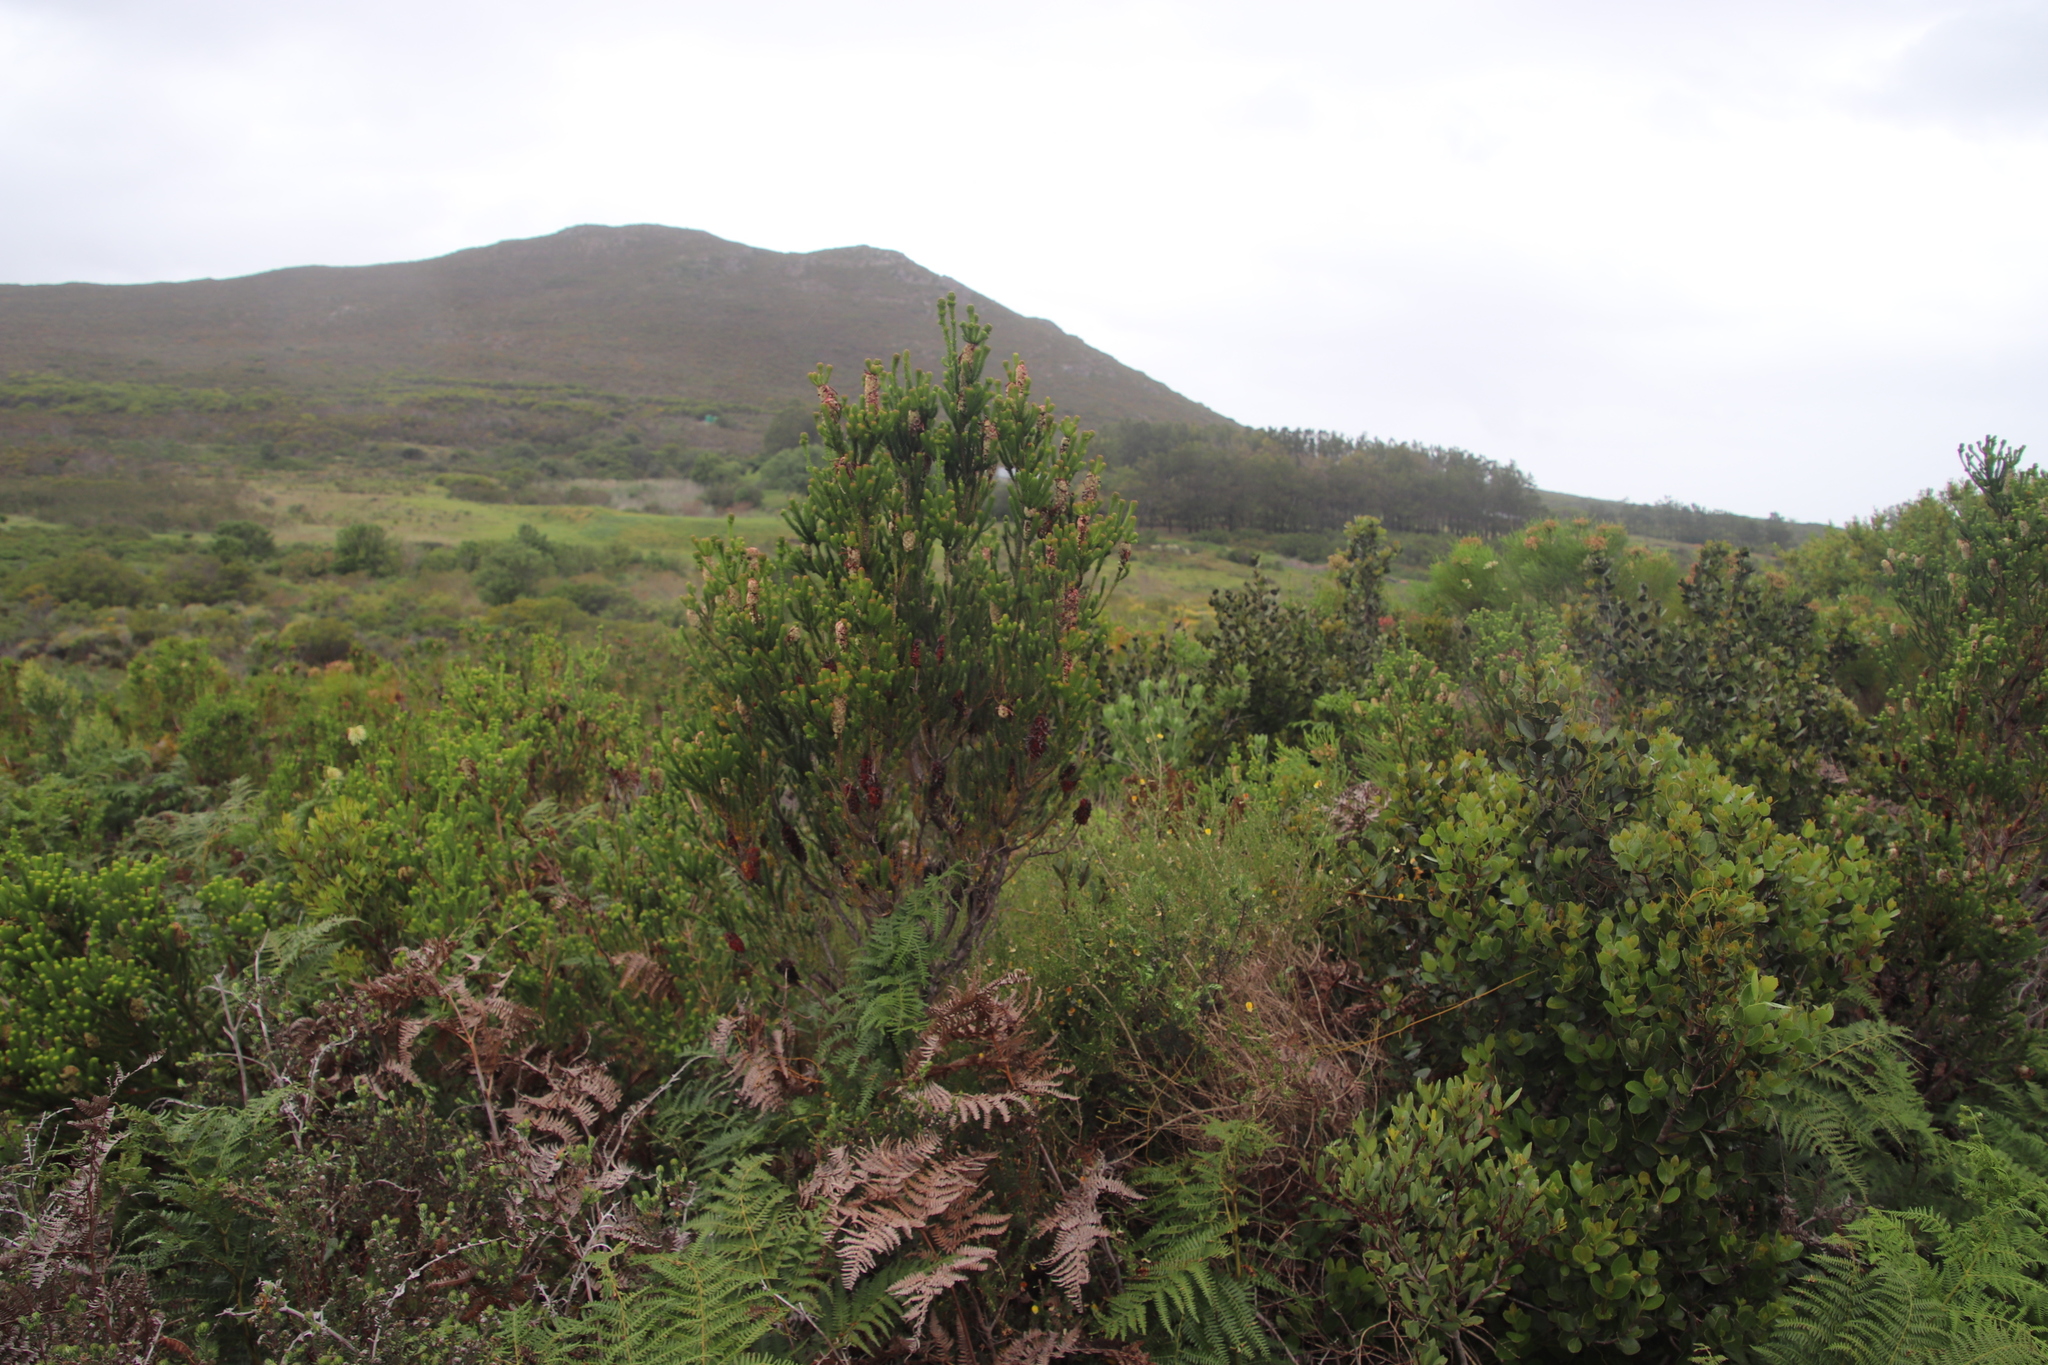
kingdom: Plantae
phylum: Tracheophyta
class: Magnoliopsida
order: Ericales
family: Ericaceae
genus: Erica
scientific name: Erica sessiliflora
